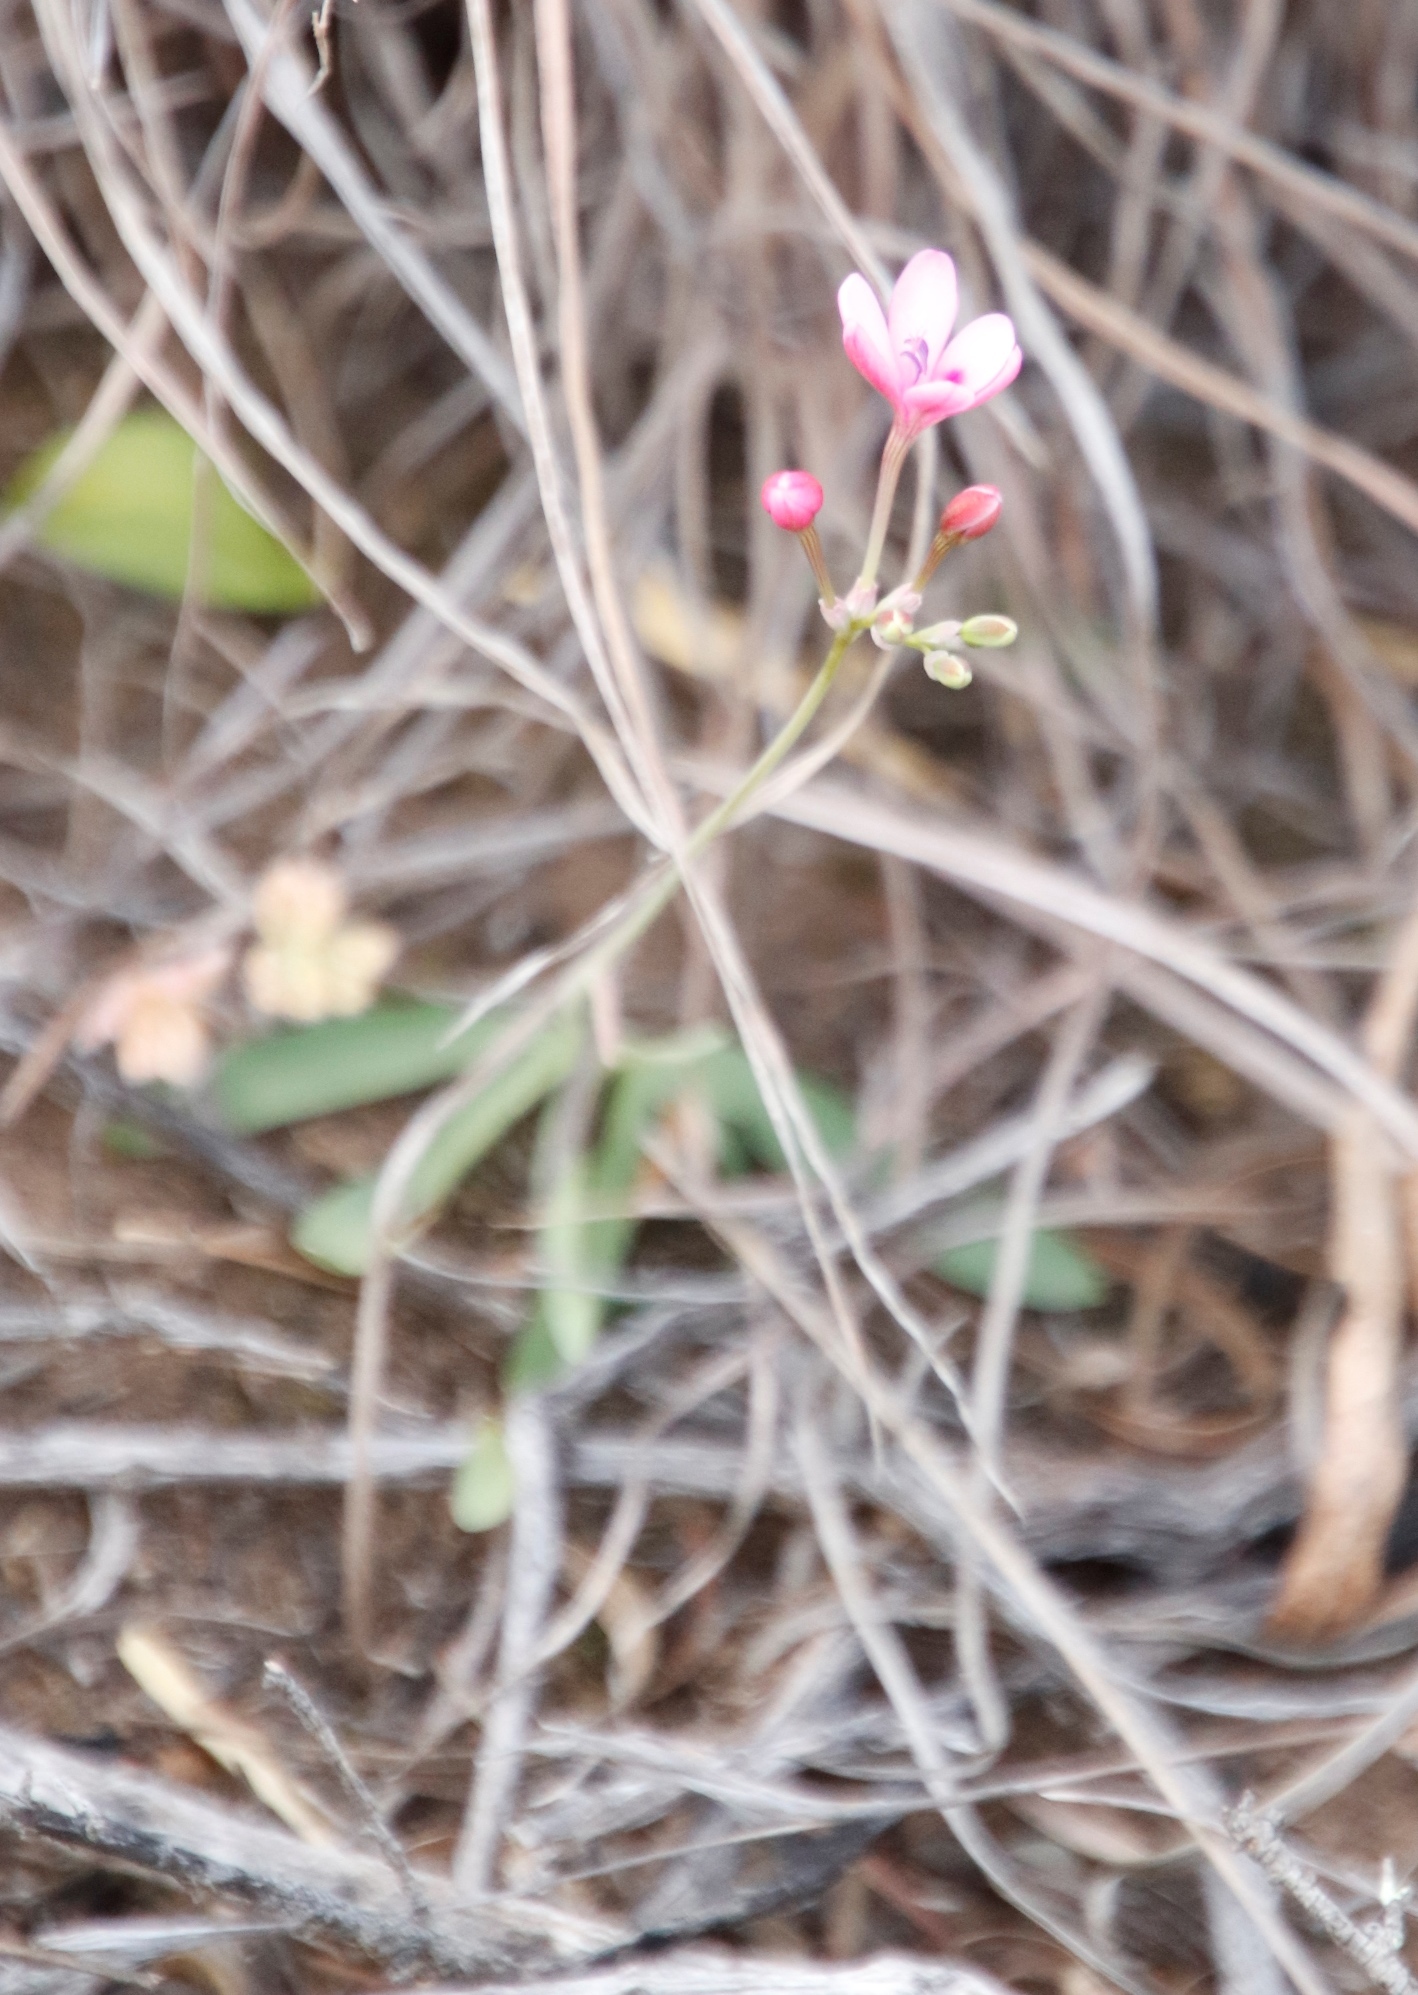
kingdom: Plantae
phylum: Tracheophyta
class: Liliopsida
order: Asparagales
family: Iridaceae
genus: Freesia
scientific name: Freesia verrucosa
